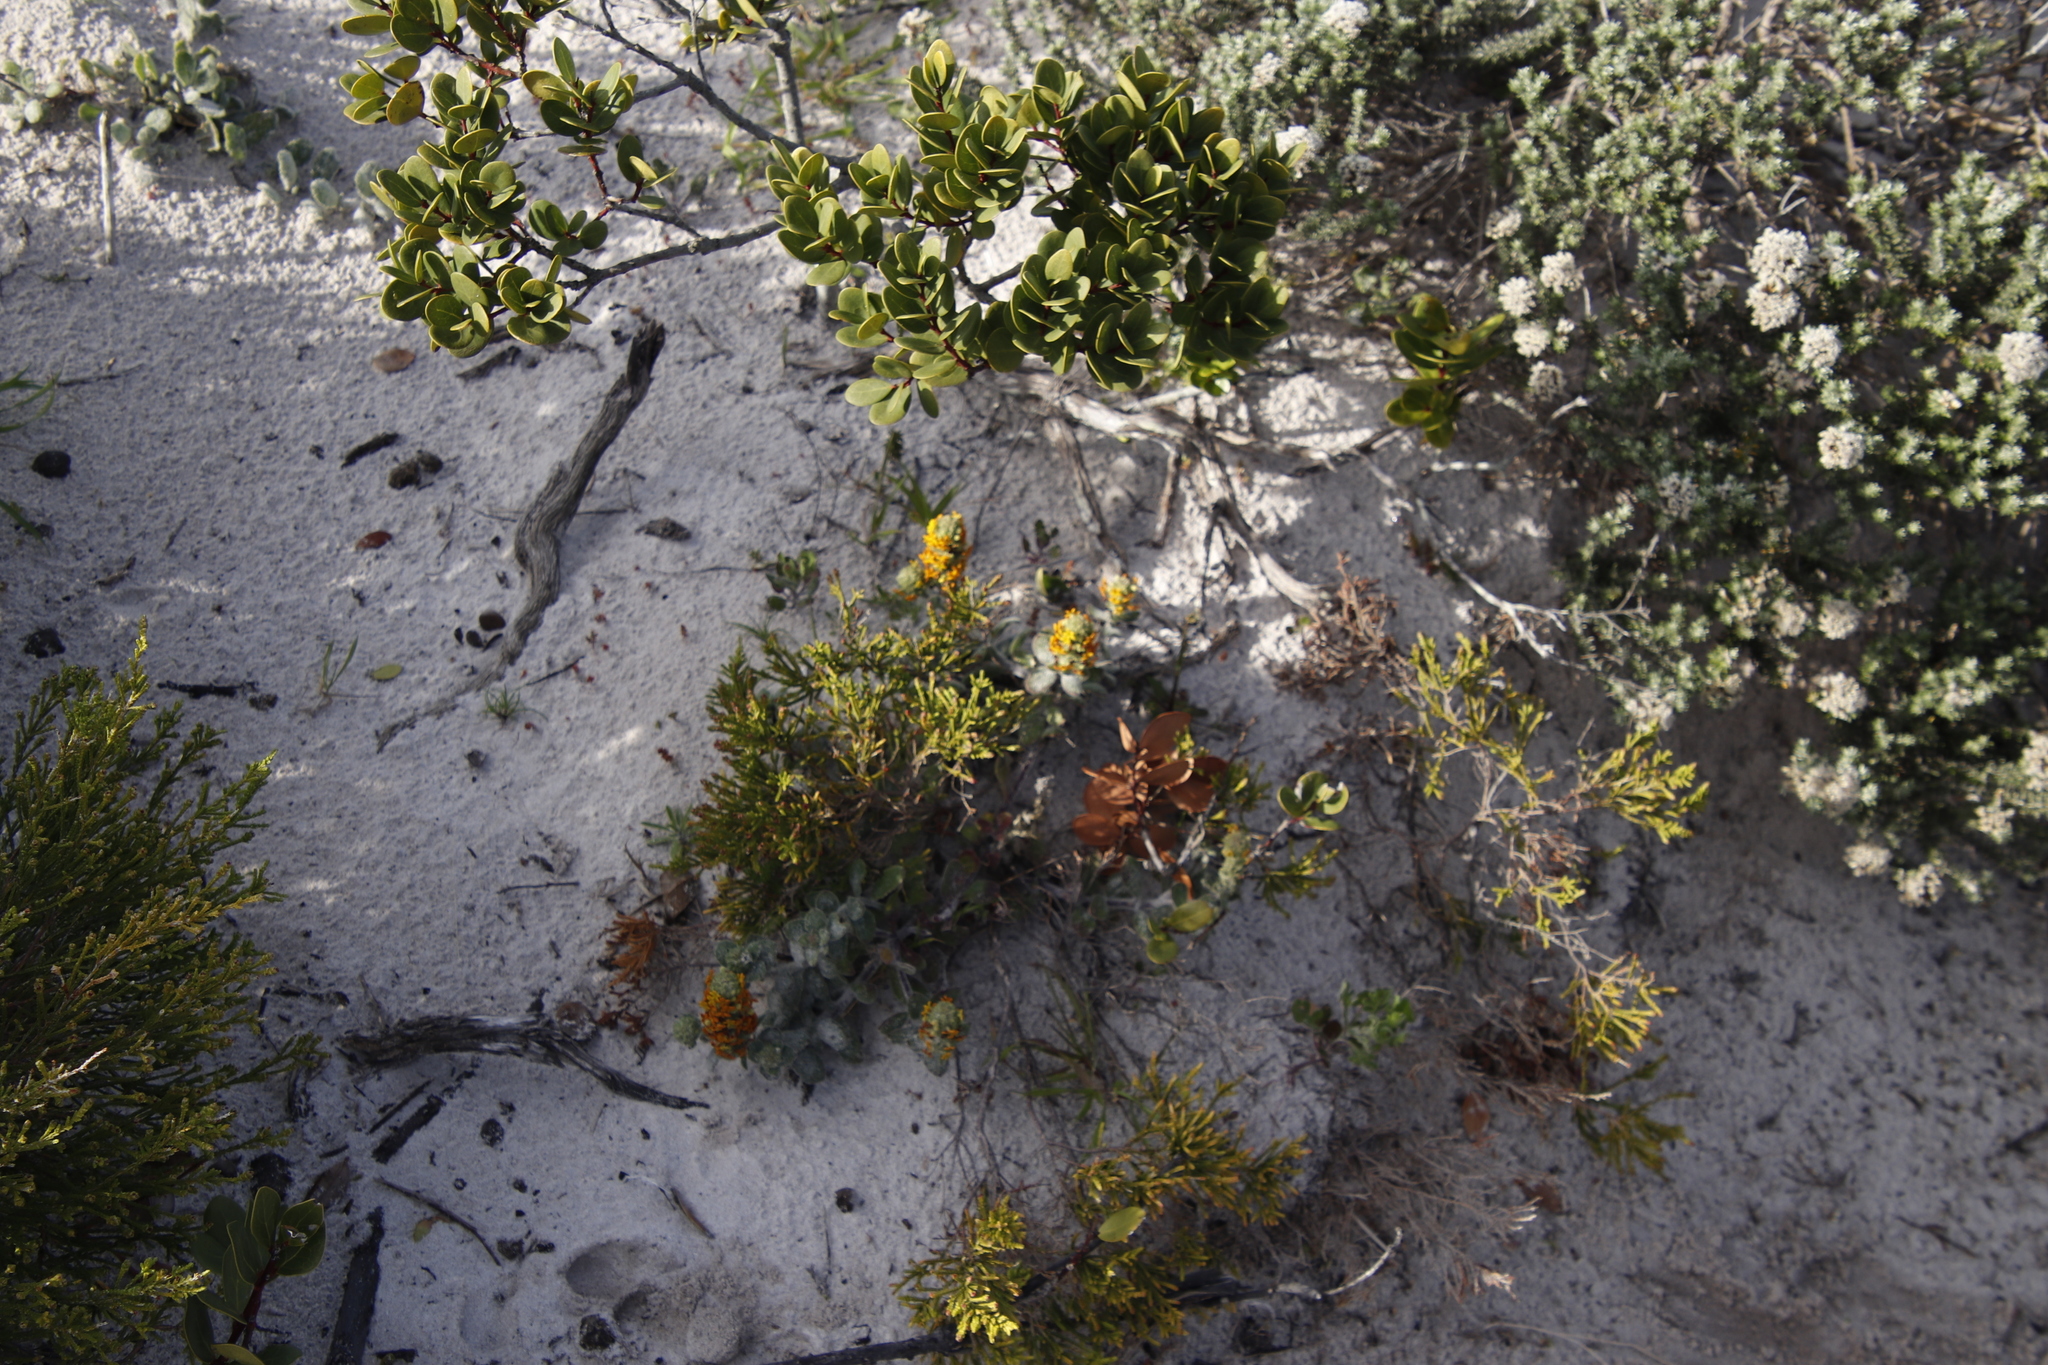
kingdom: Plantae
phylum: Tracheophyta
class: Magnoliopsida
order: Lamiales
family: Scrophulariaceae
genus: Manulea
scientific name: Manulea tomentosa
